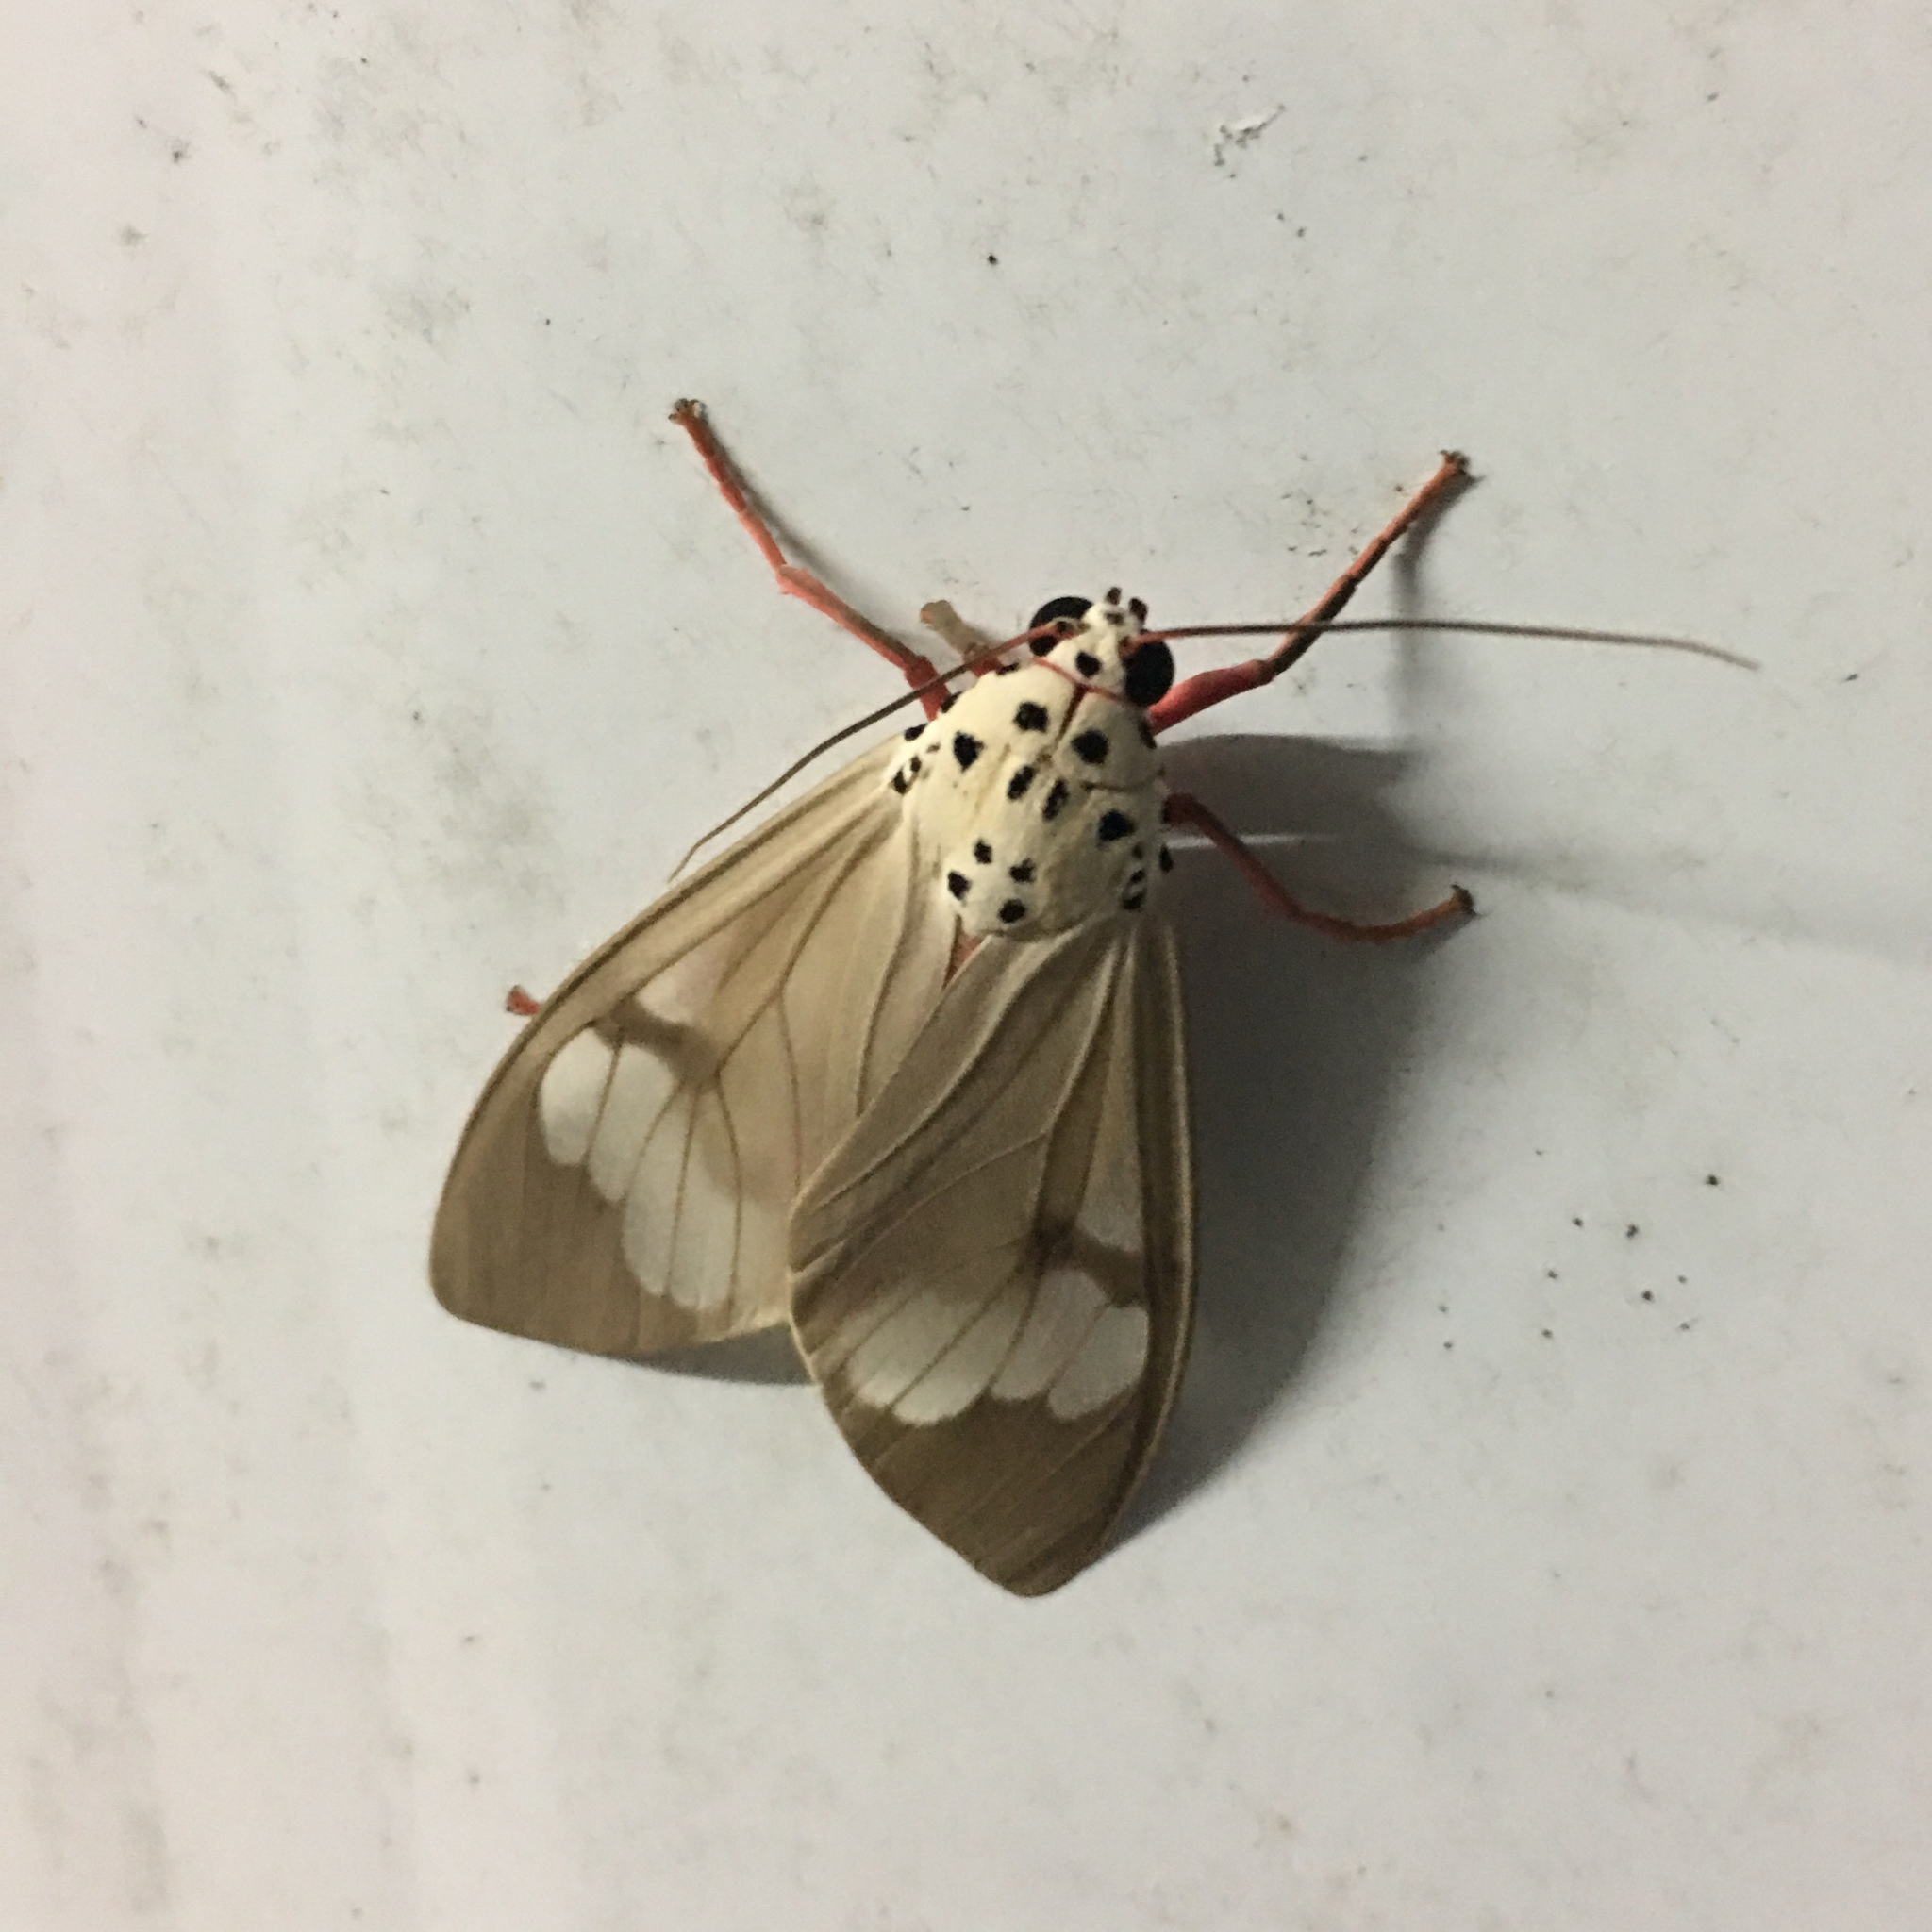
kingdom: Animalia
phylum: Arthropoda
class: Insecta
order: Lepidoptera
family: Erebidae
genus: Amerila
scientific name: Amerila astreus
